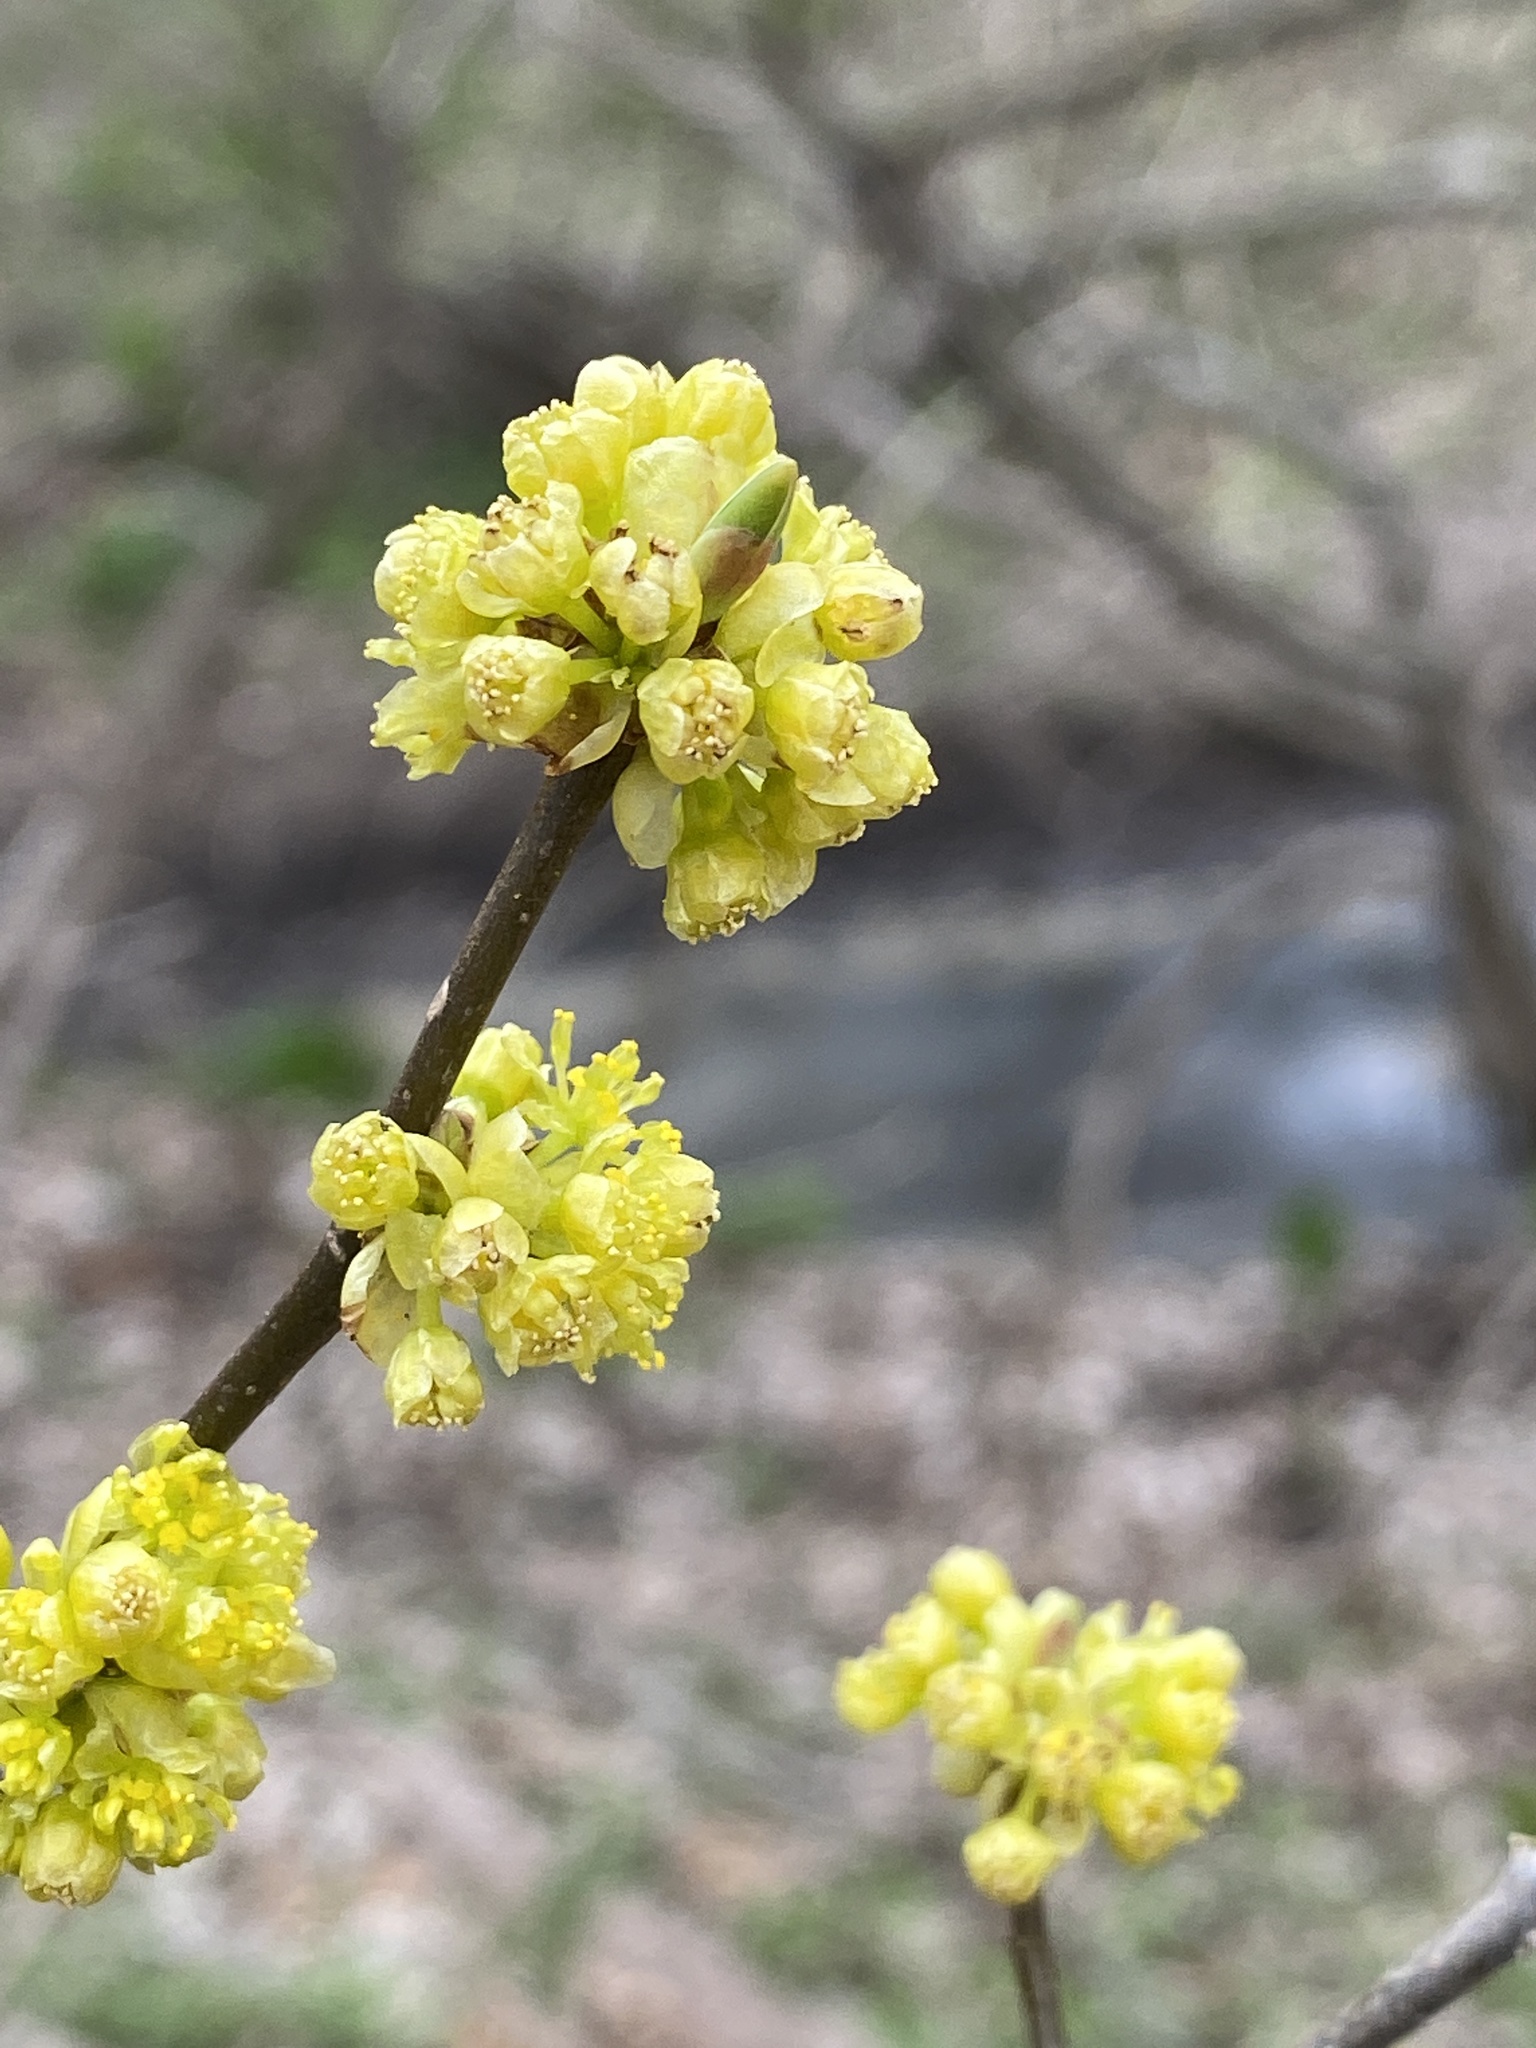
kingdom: Plantae
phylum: Tracheophyta
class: Magnoliopsida
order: Laurales
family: Lauraceae
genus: Lindera
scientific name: Lindera benzoin
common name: Spicebush
